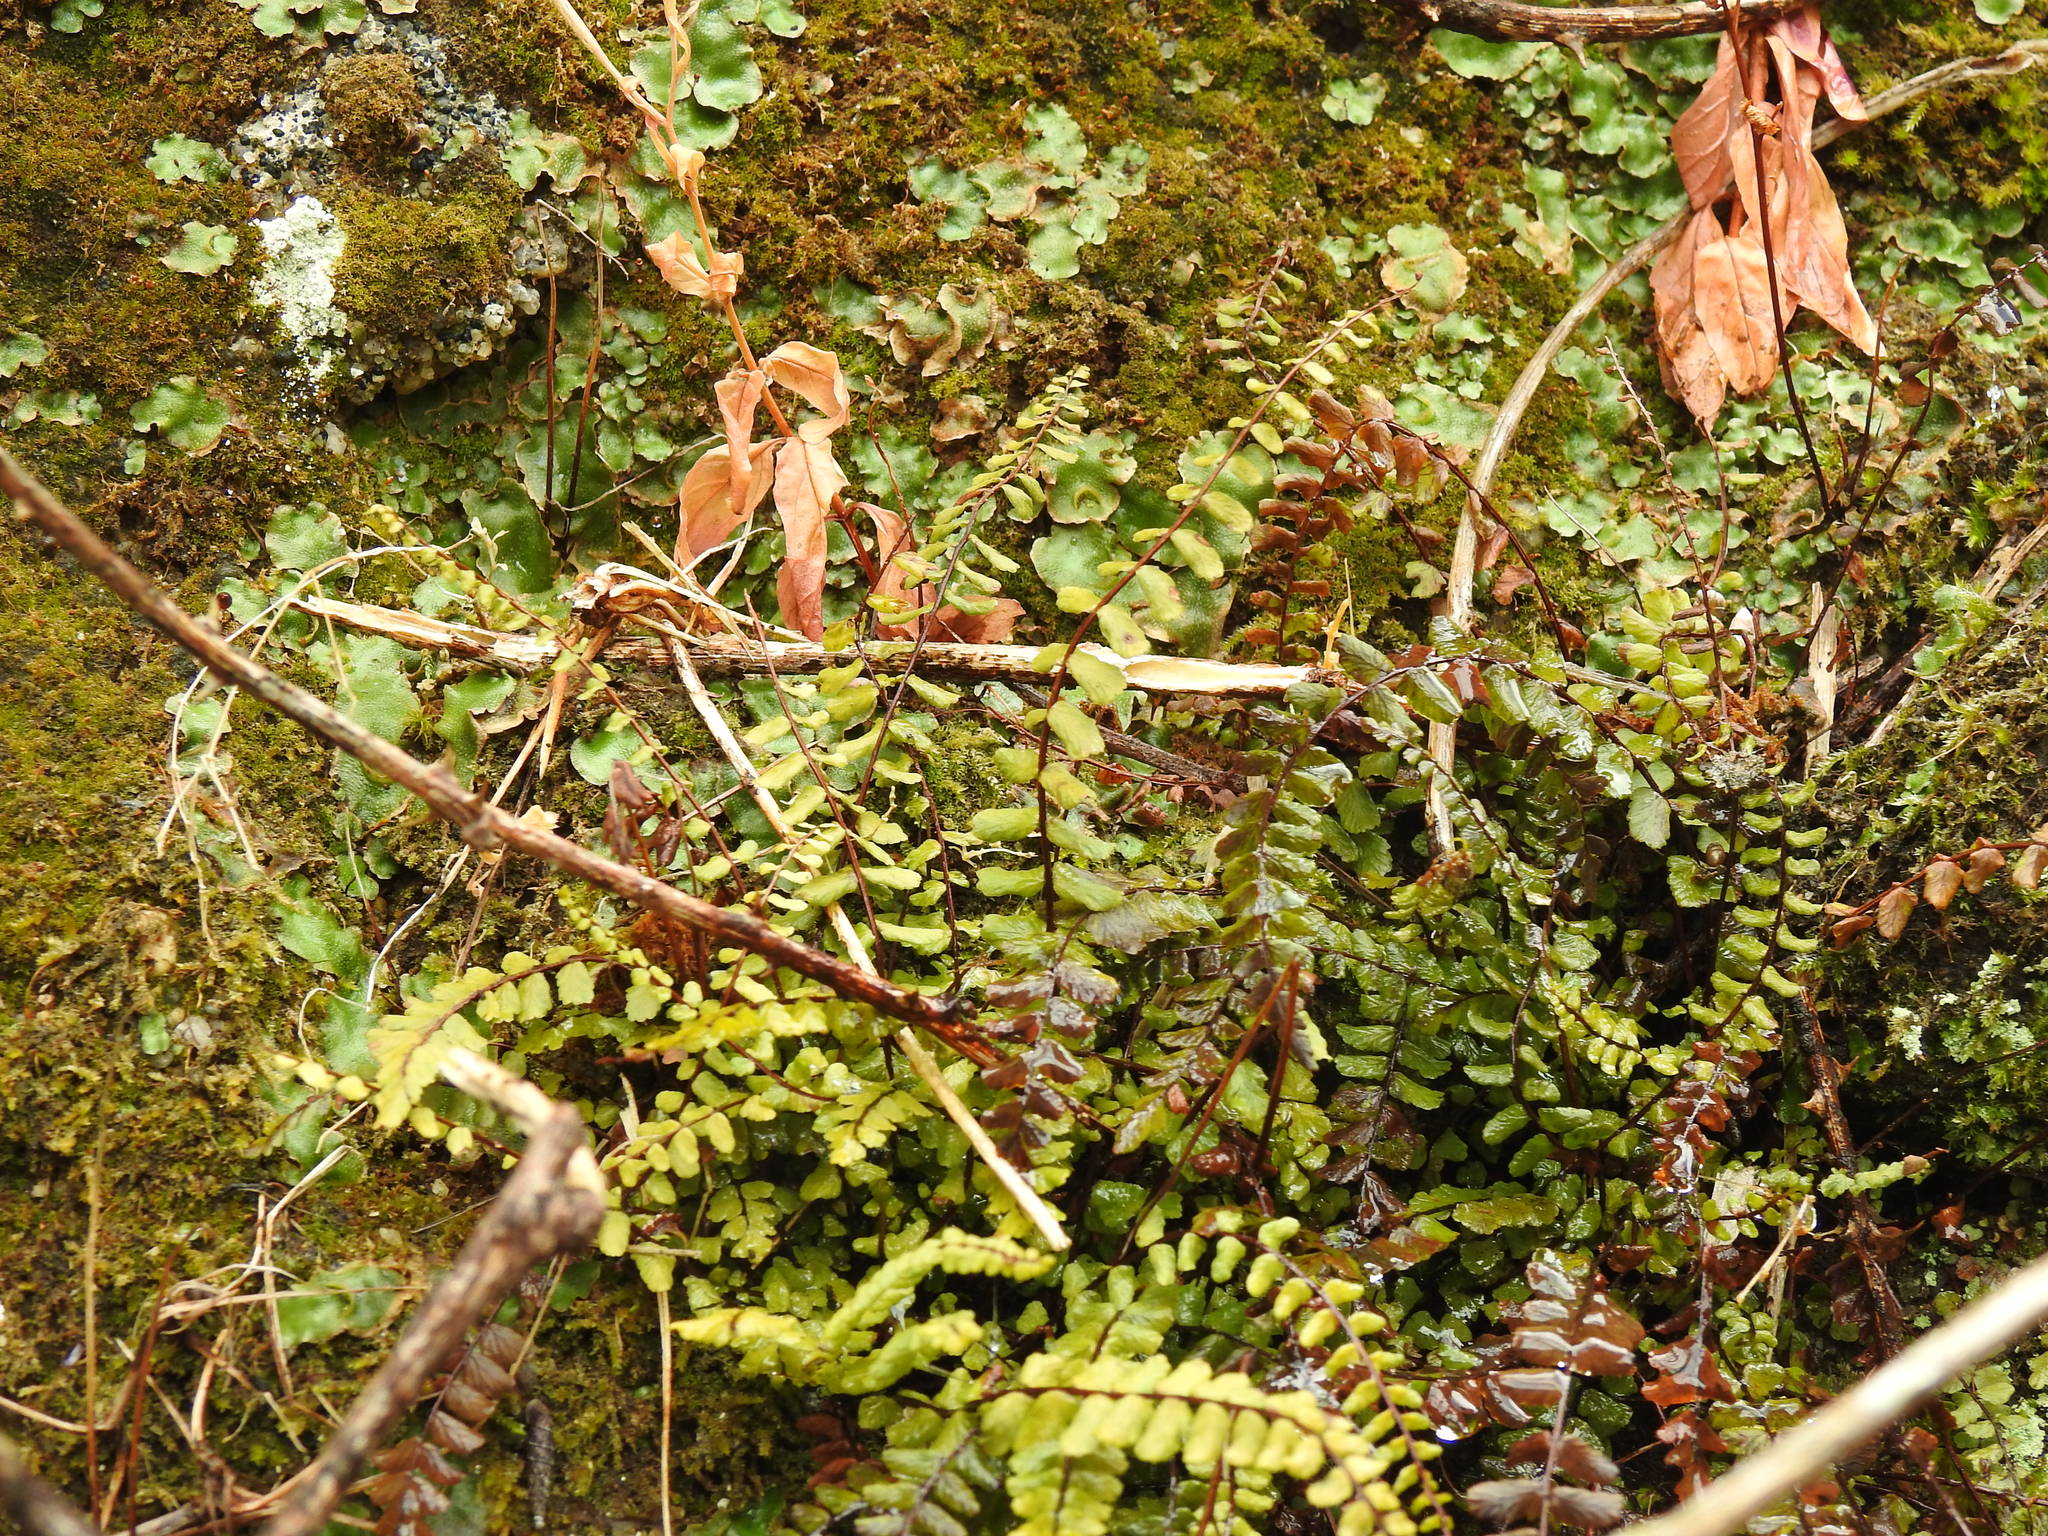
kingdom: Plantae
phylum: Tracheophyta
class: Polypodiopsida
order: Polypodiales
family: Aspleniaceae
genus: Asplenium
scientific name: Asplenium trichomanes
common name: Maidenhair spleenwort
